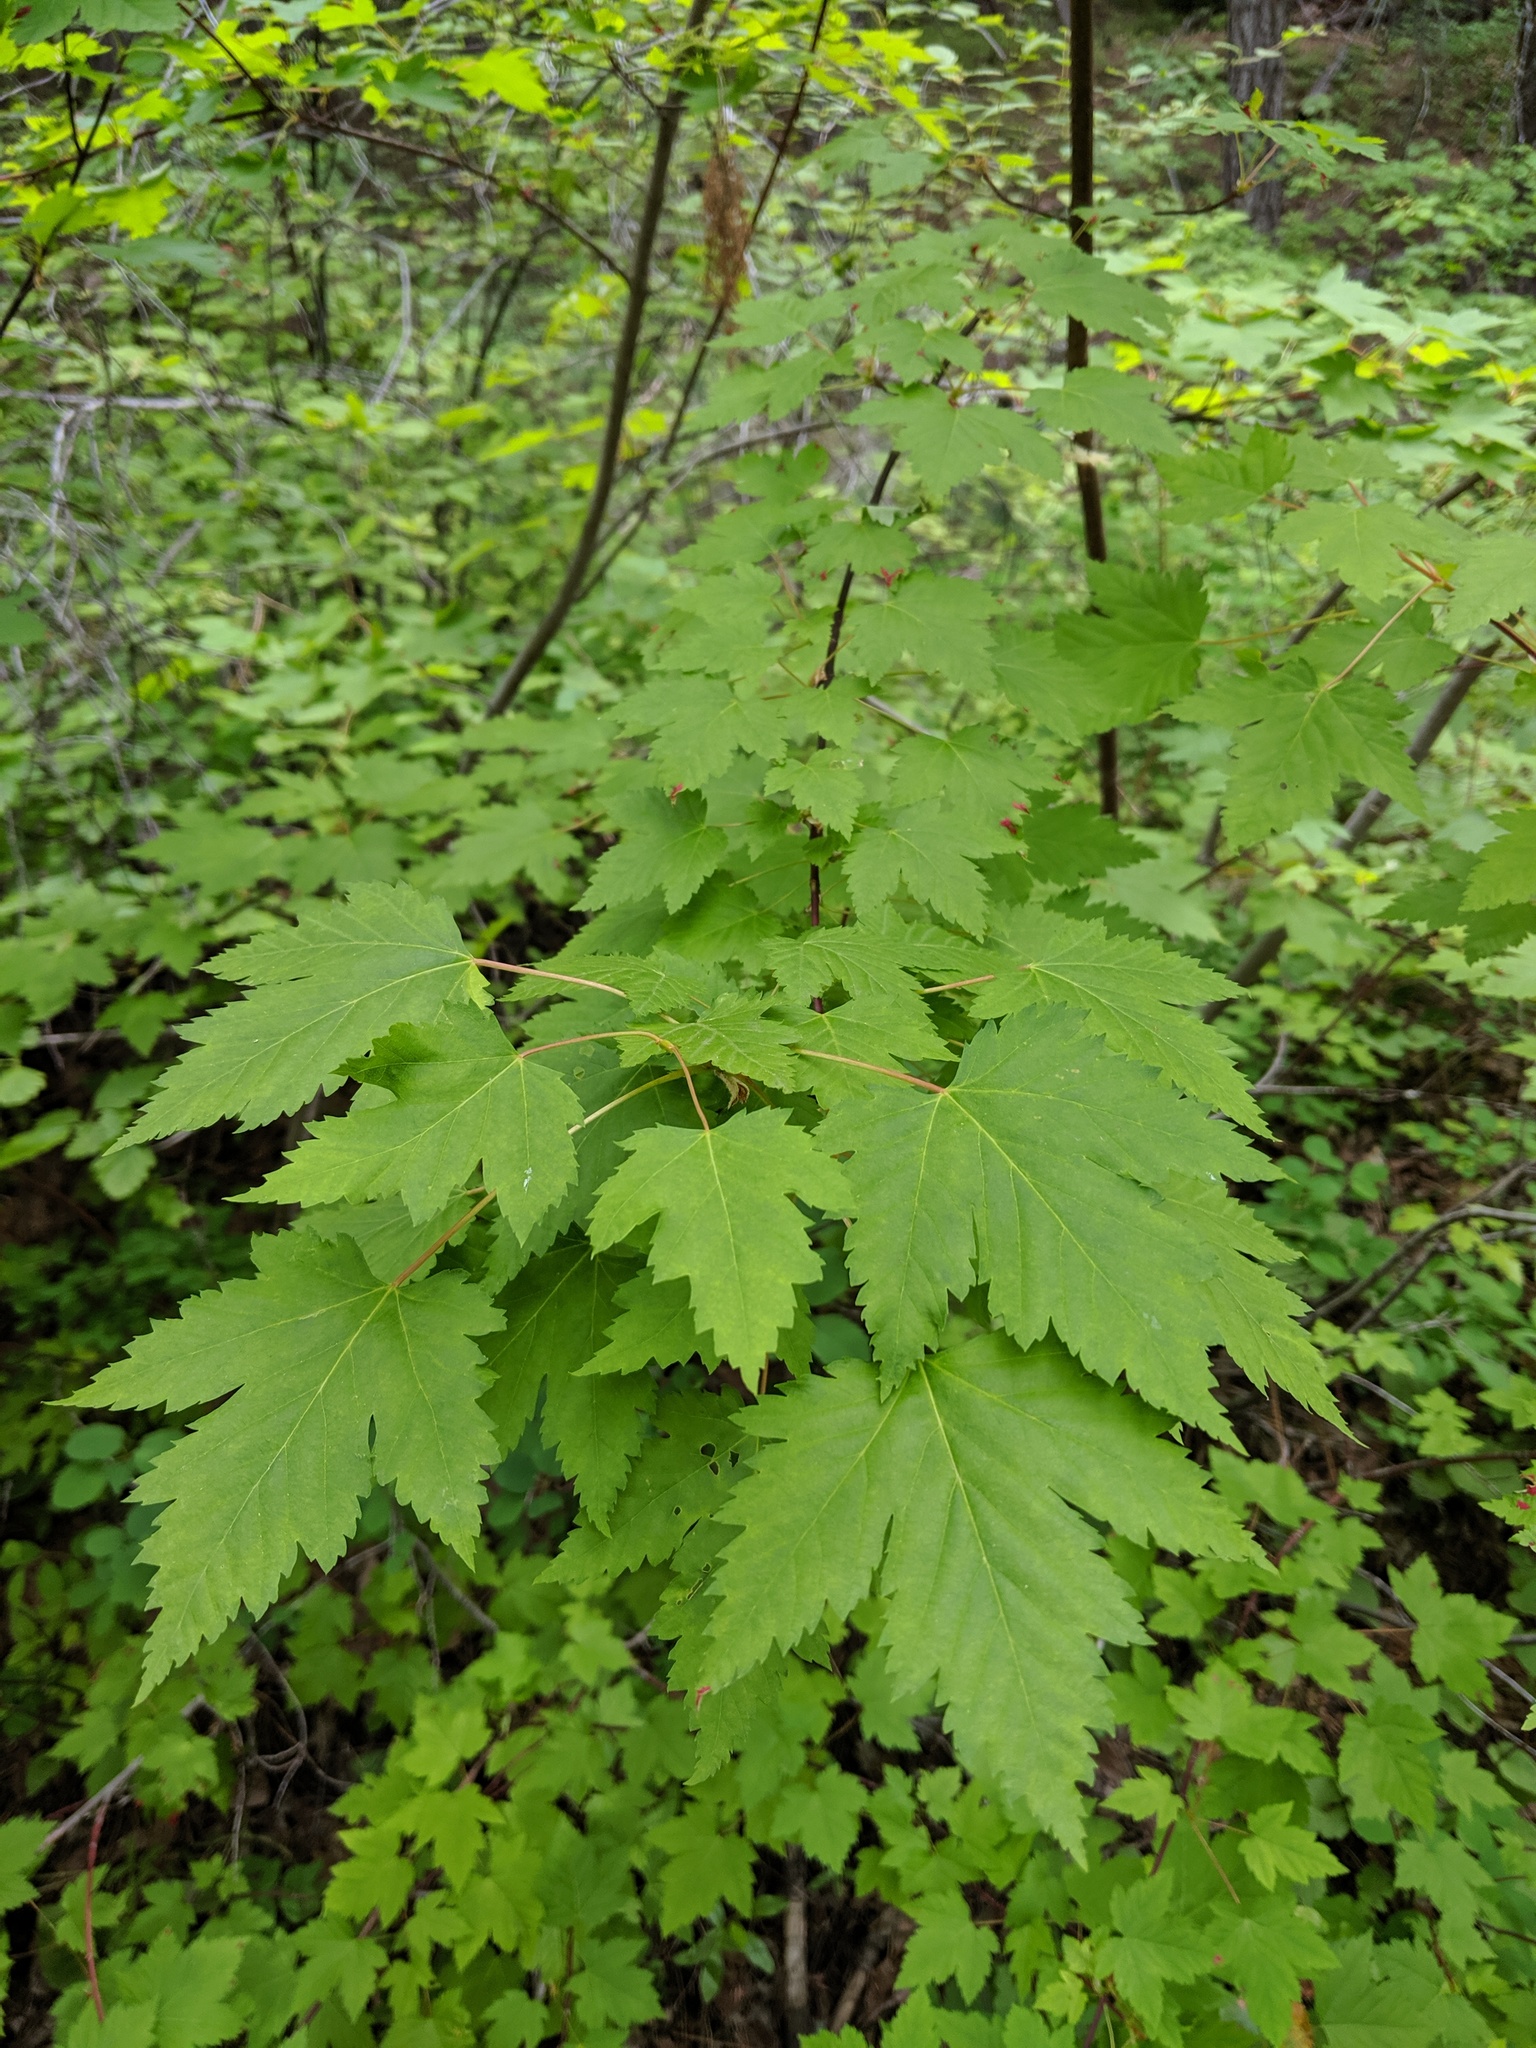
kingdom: Plantae
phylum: Tracheophyta
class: Magnoliopsida
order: Sapindales
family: Sapindaceae
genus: Acer
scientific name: Acer glabrum
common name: Rocky mountain maple
